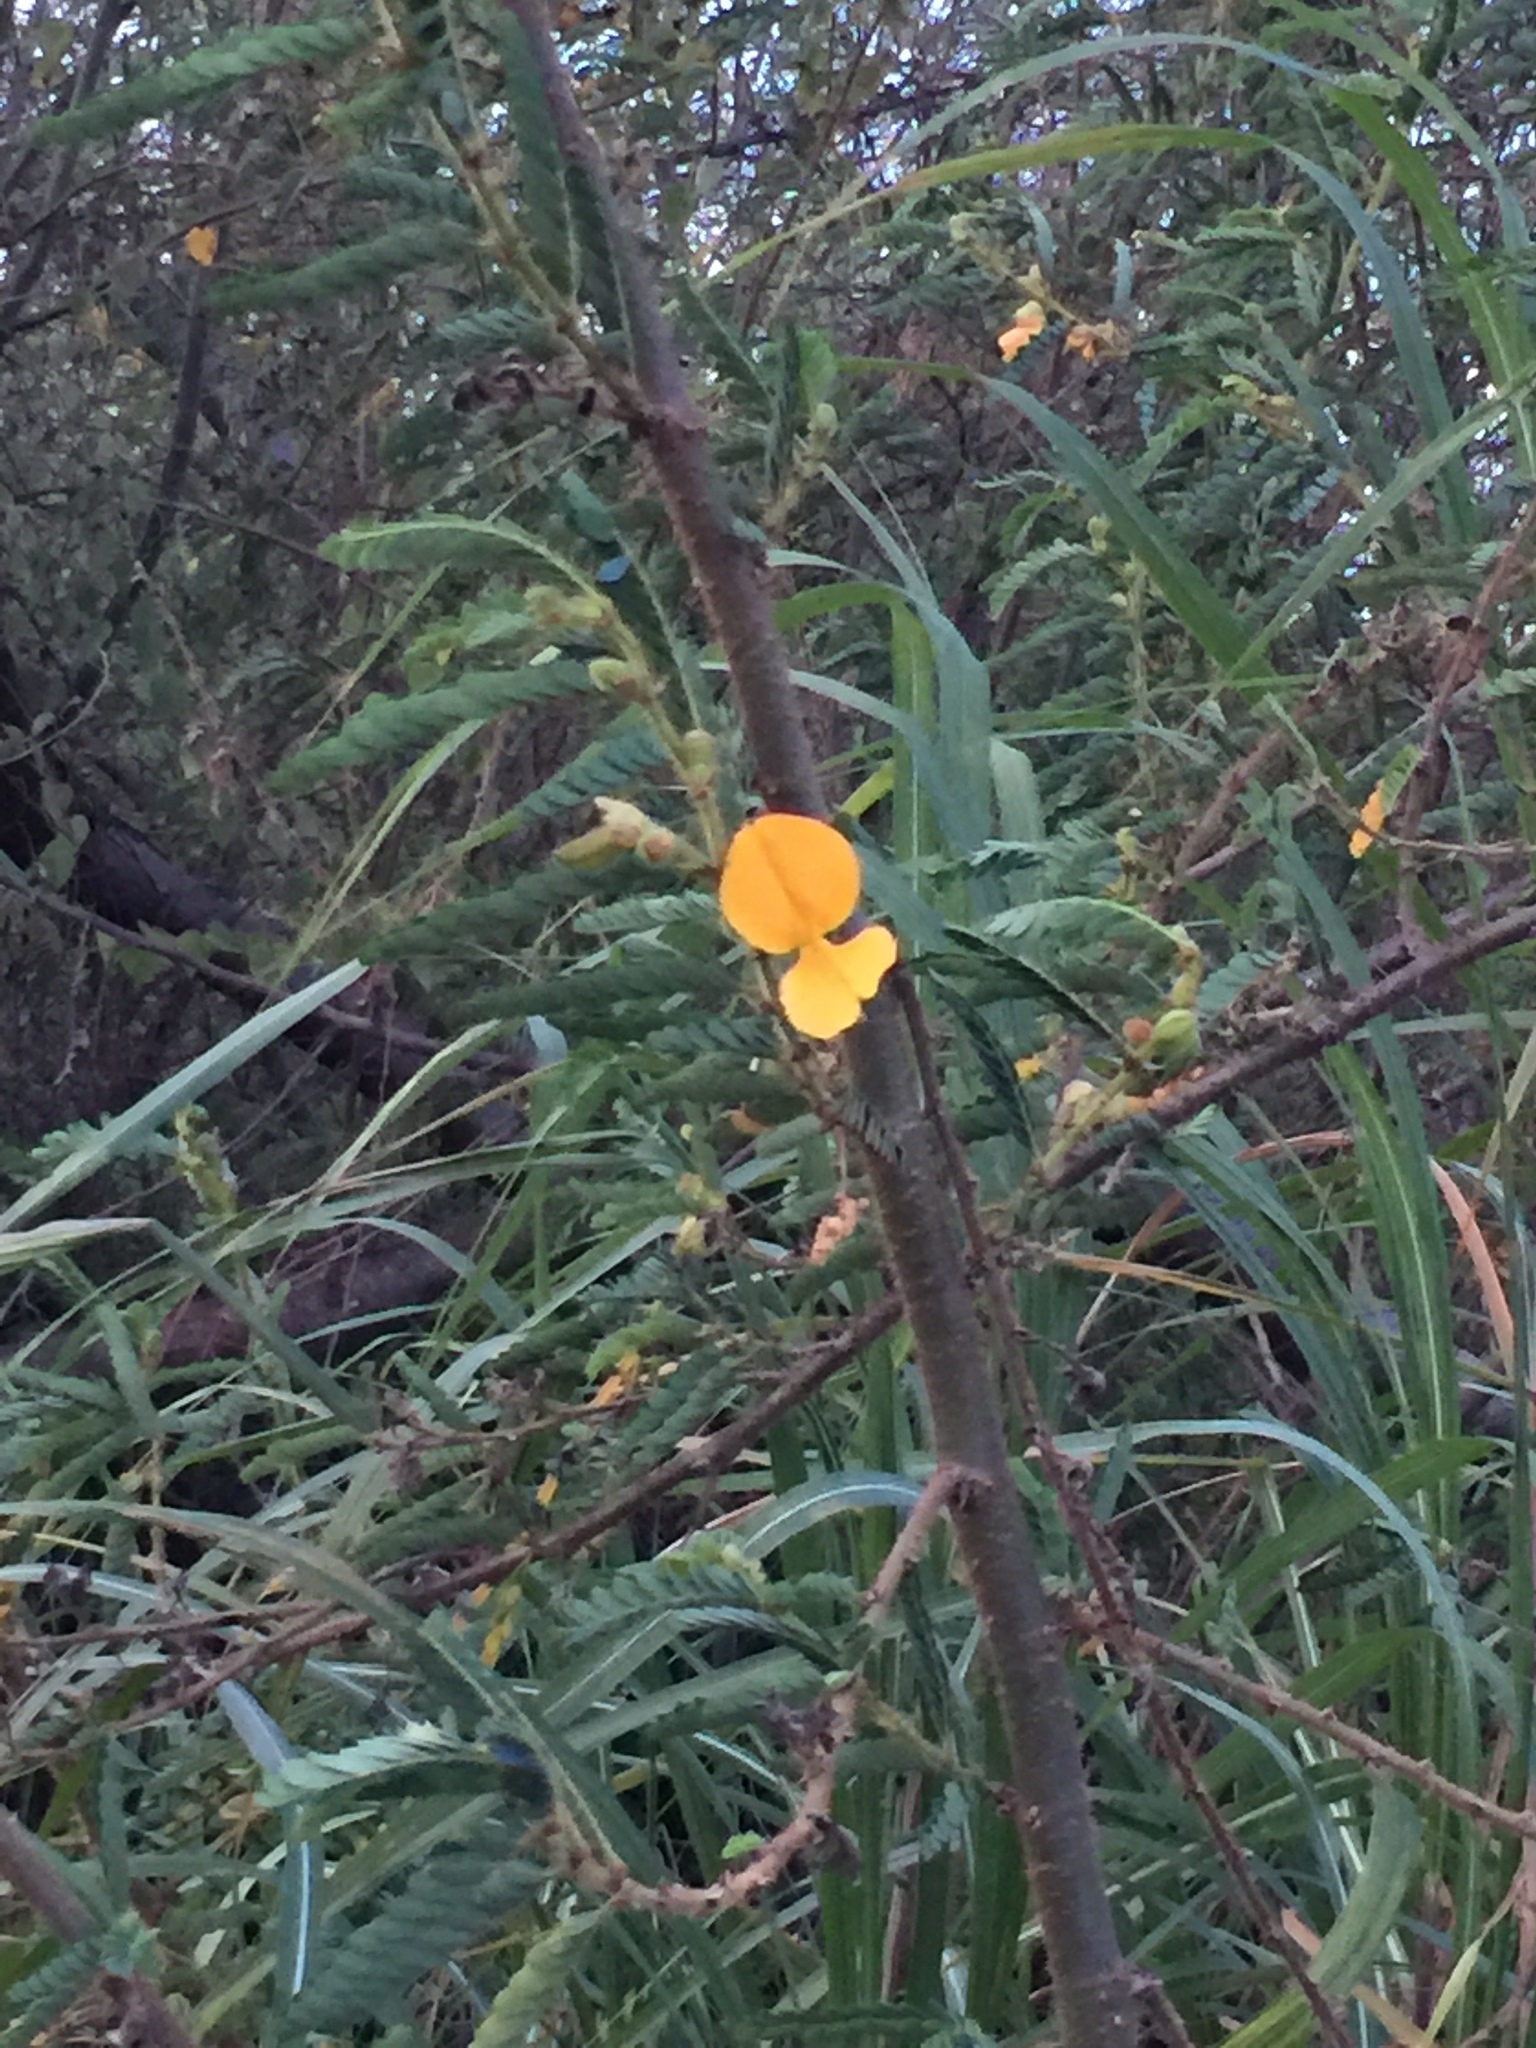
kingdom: Plantae
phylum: Tracheophyta
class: Magnoliopsida
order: Fabales
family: Fabaceae
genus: Aeschynomene
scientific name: Aeschynomene elaphroxylon
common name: Ambatch
